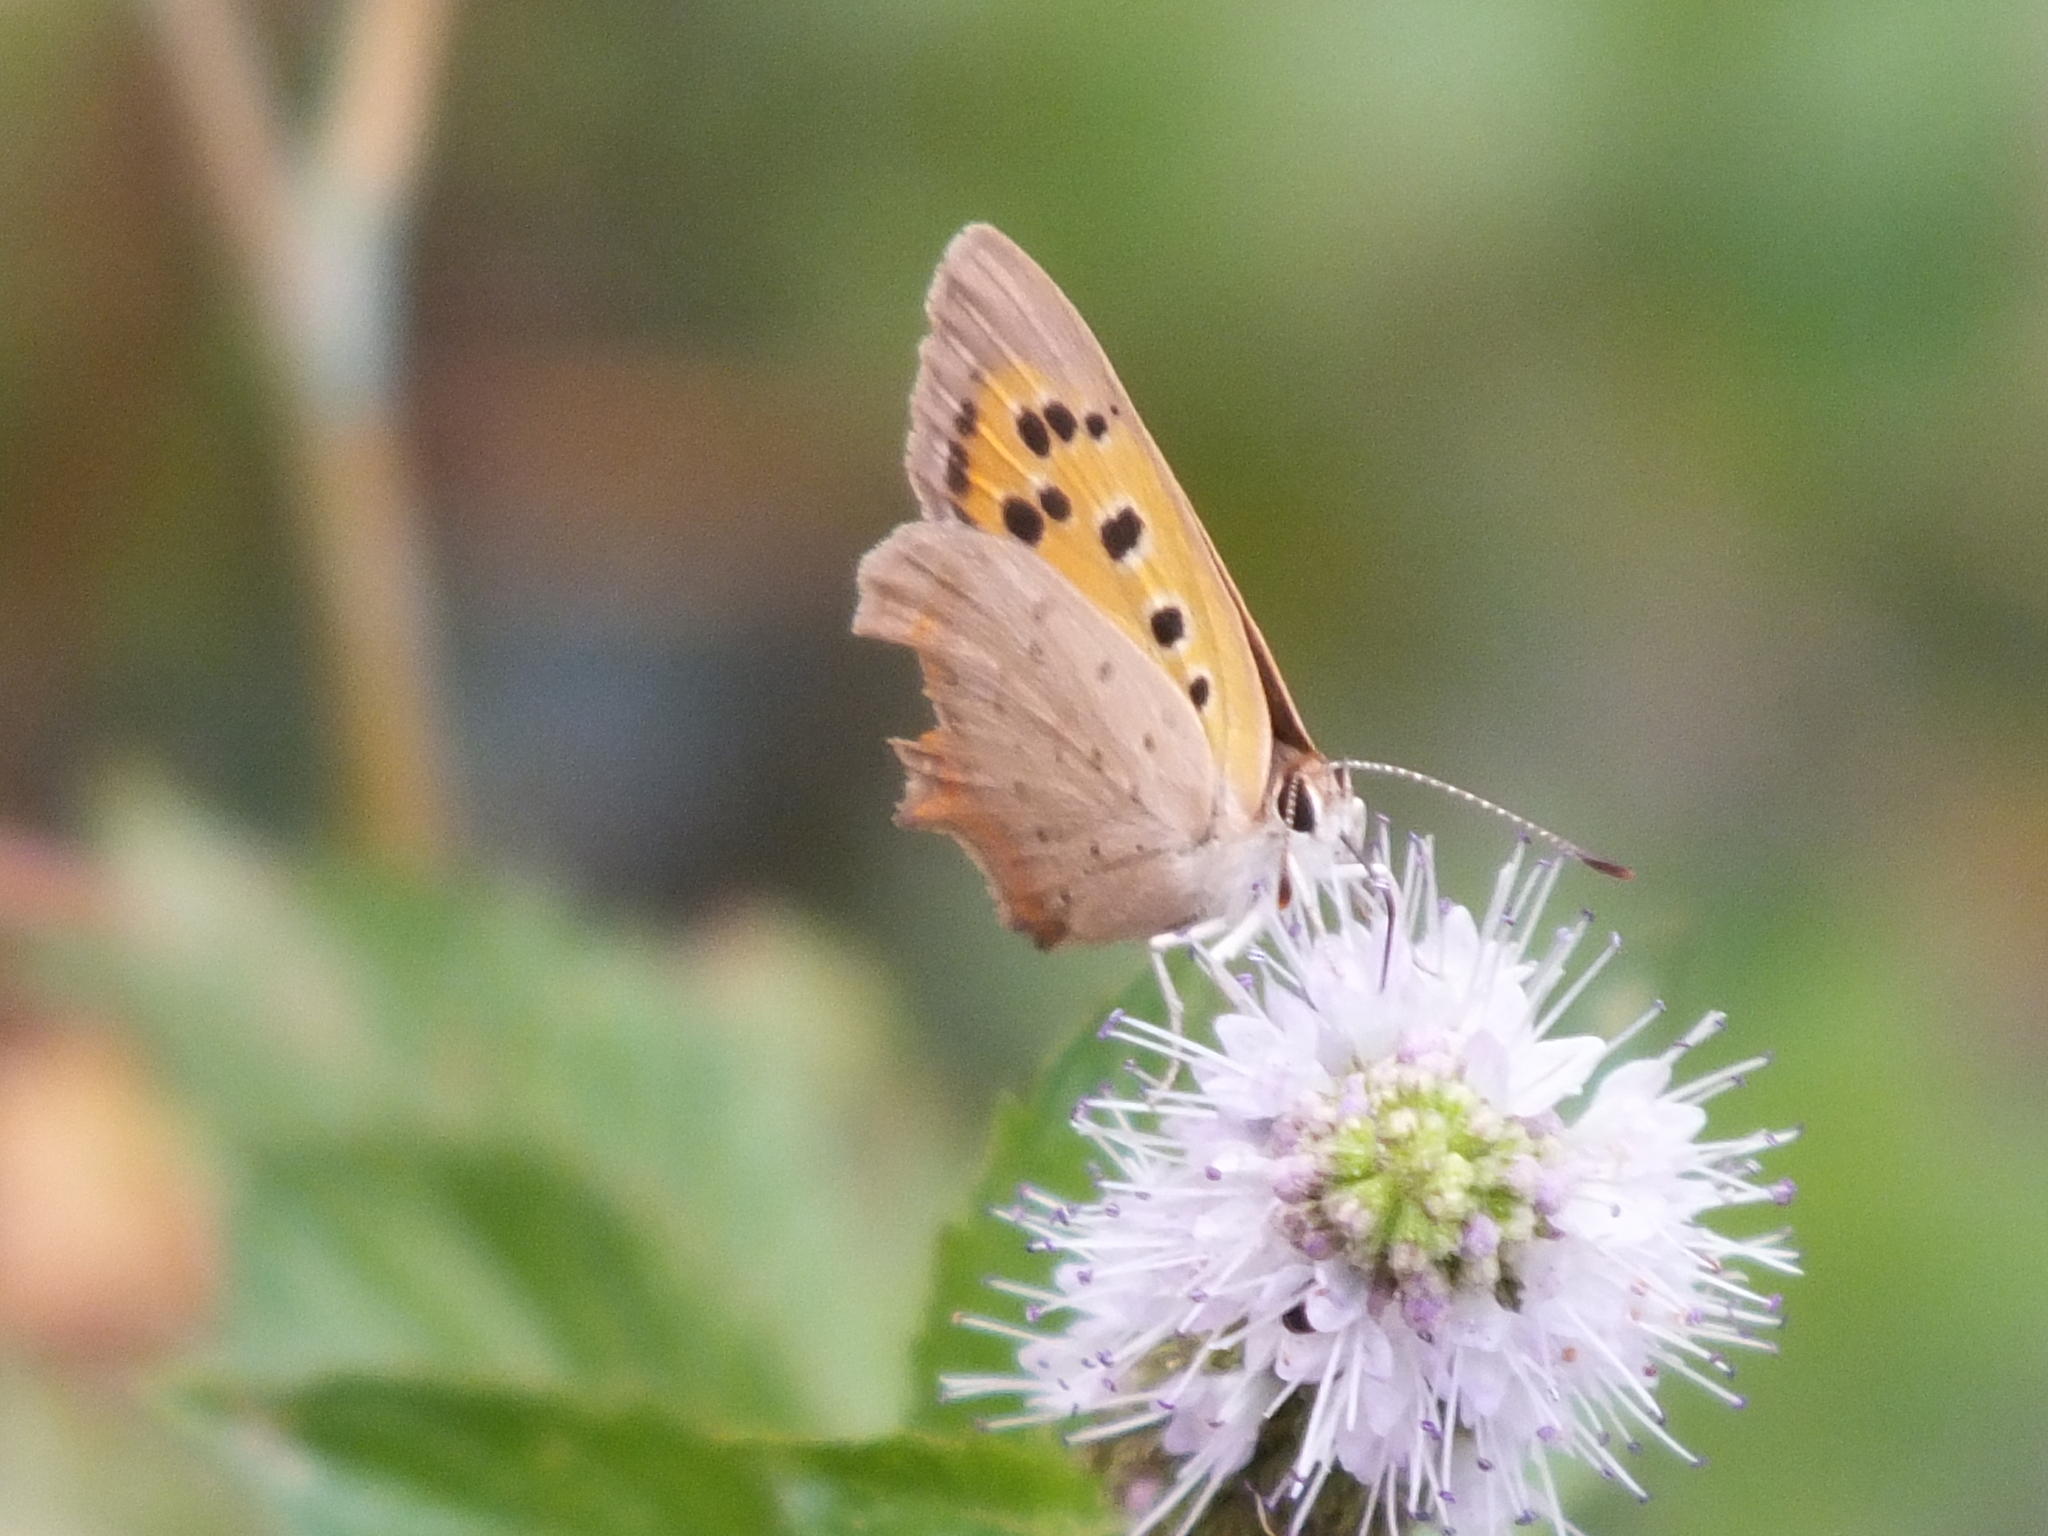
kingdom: Animalia
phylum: Arthropoda
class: Insecta
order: Lepidoptera
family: Lycaenidae
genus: Lycaena
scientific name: Lycaena phlaeas
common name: Small copper
